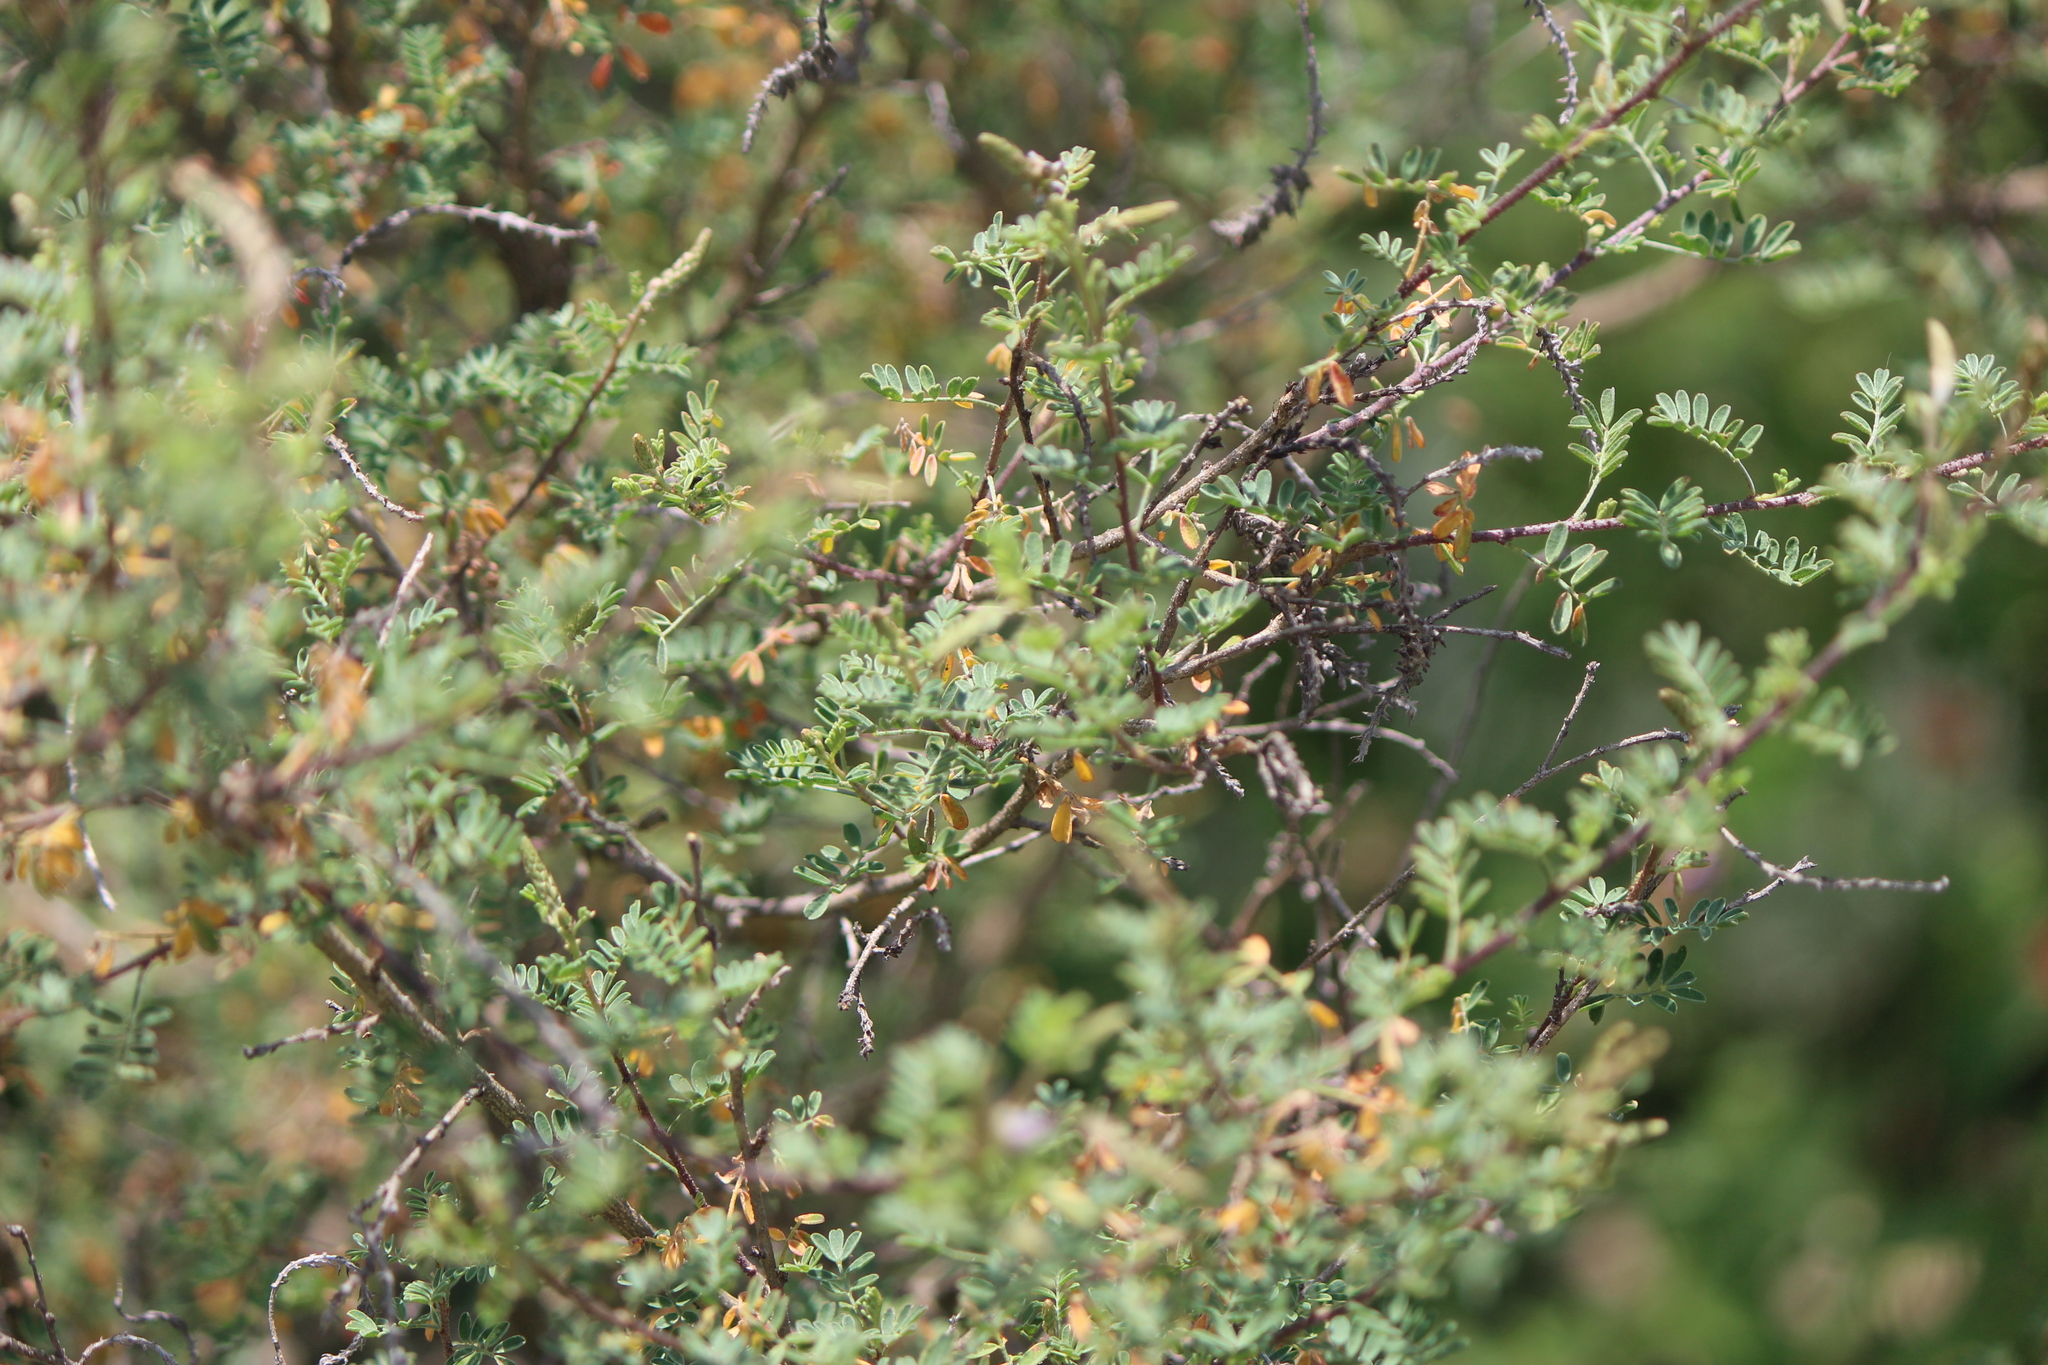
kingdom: Plantae
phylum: Tracheophyta
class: Magnoliopsida
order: Fabales
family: Fabaceae
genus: Dalea
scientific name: Dalea bicolor
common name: Silver prairie-clover
